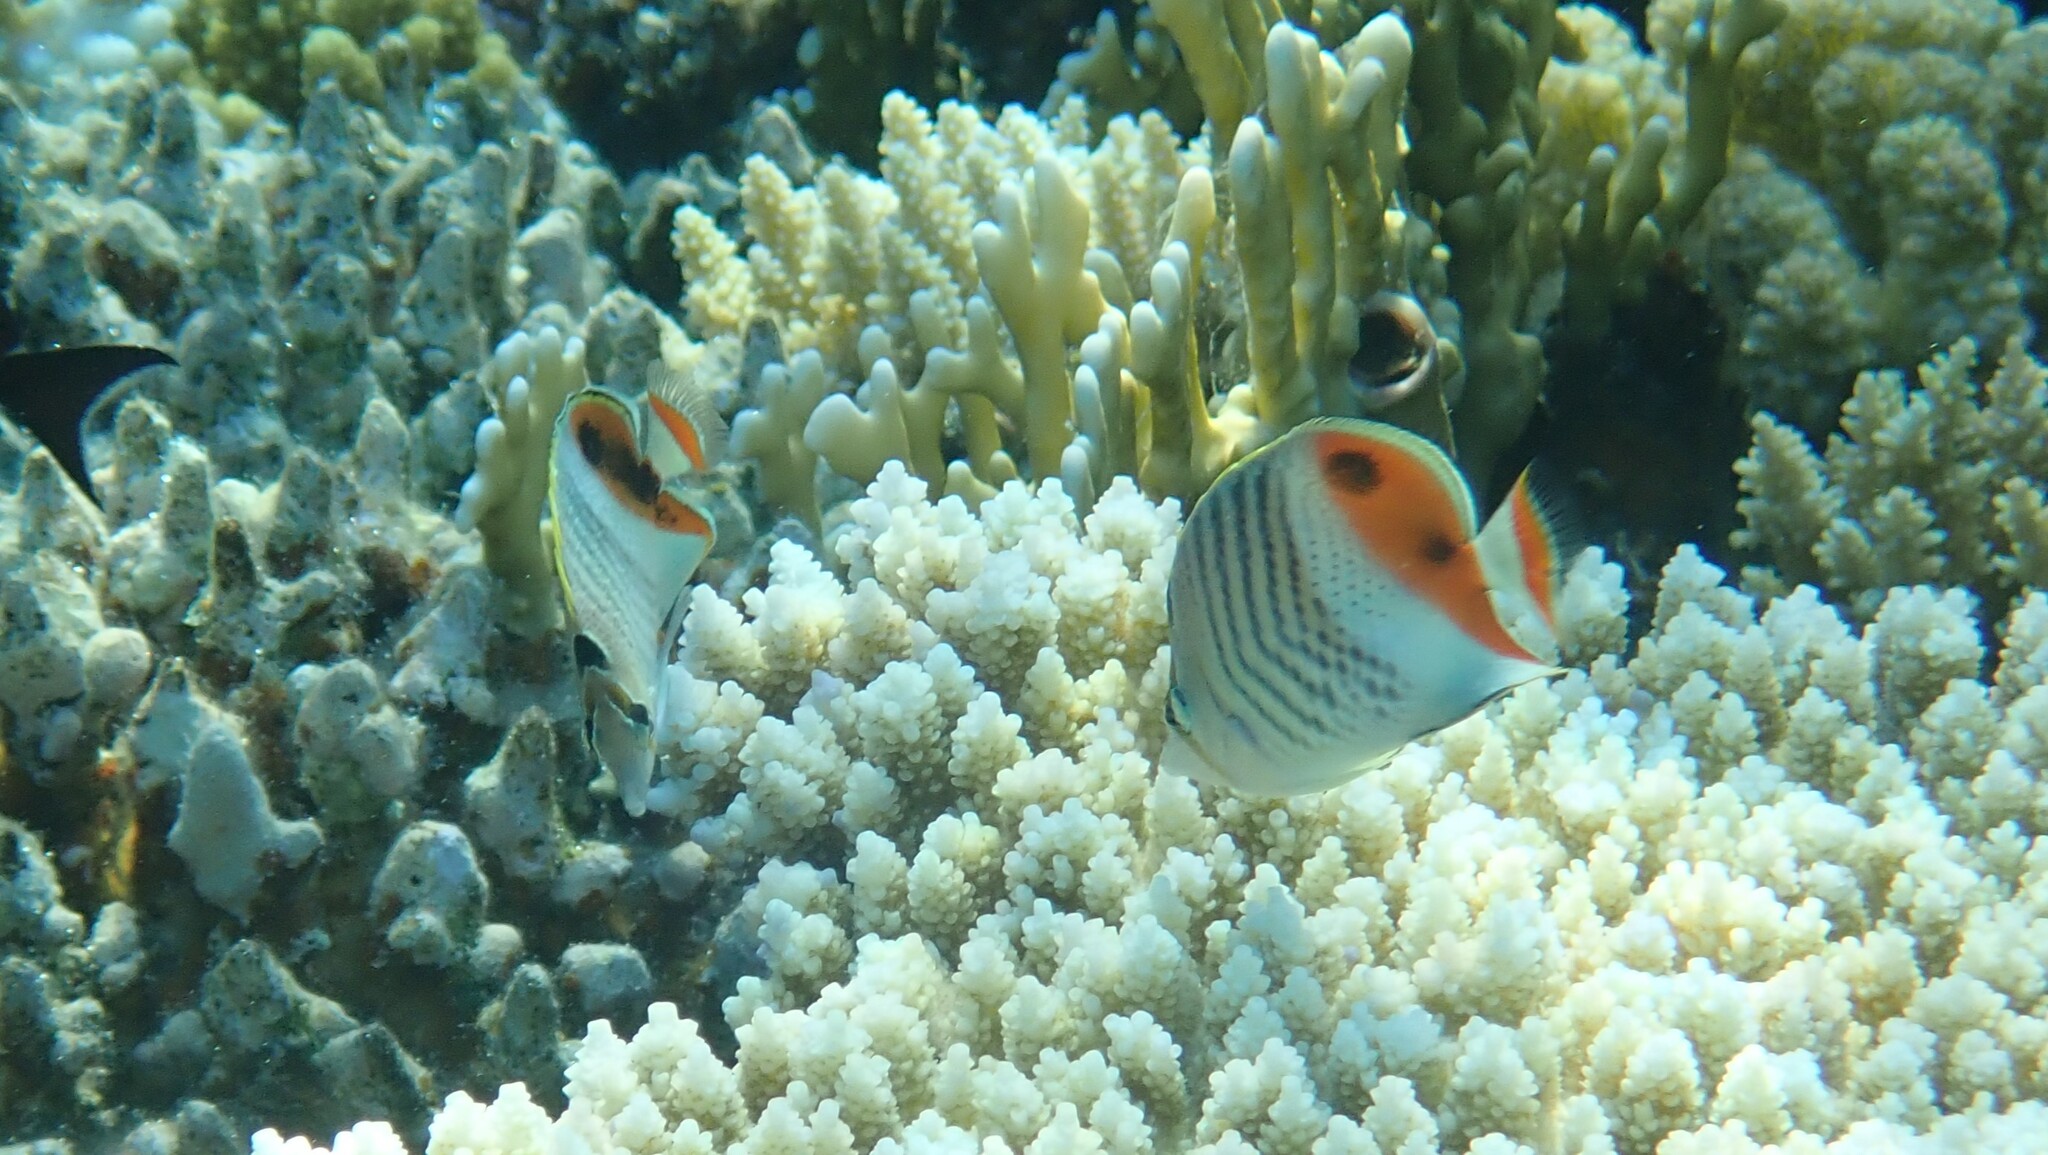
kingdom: Animalia
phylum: Chordata
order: Perciformes
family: Chaetodontidae
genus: Chaetodon
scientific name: Chaetodon paucifasciatus
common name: Crown butterflyfish
